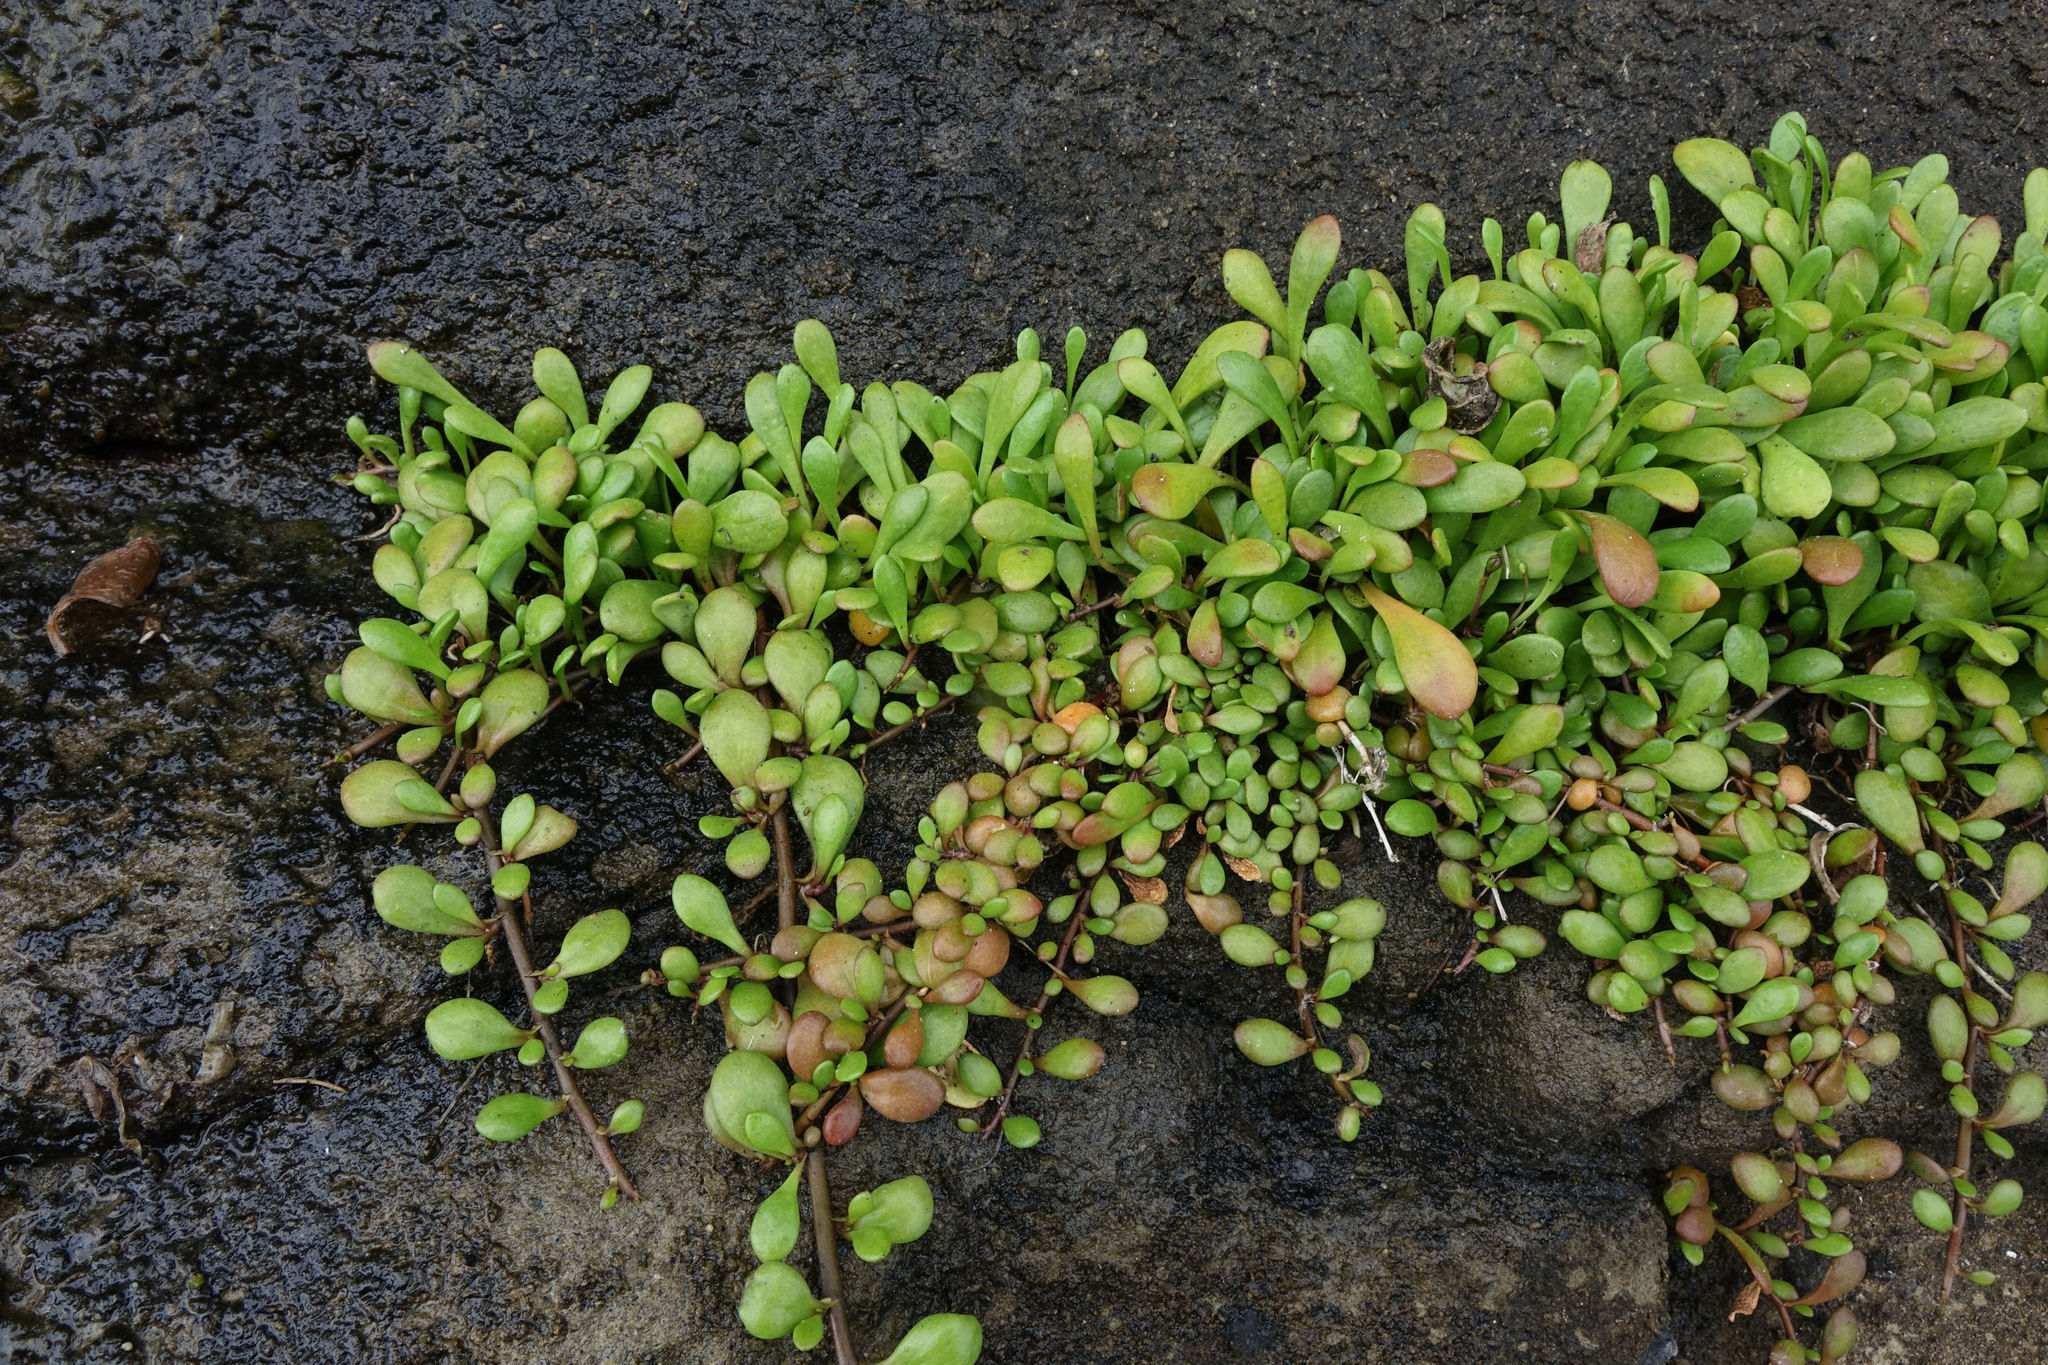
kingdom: Plantae
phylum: Tracheophyta
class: Magnoliopsida
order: Asterales
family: Goodeniaceae
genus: Goodenia
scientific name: Goodenia radicans
